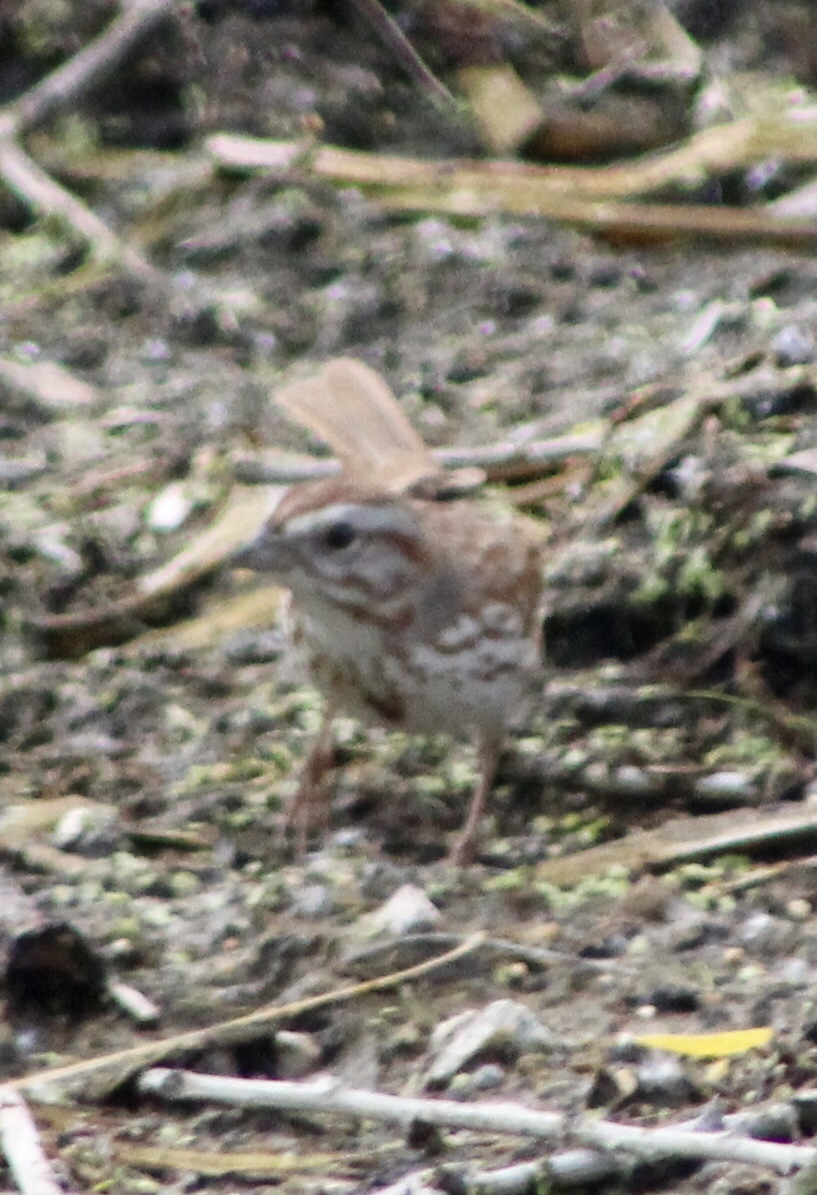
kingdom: Animalia
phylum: Chordata
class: Aves
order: Passeriformes
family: Passerellidae
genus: Melospiza
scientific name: Melospiza melodia
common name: Song sparrow
